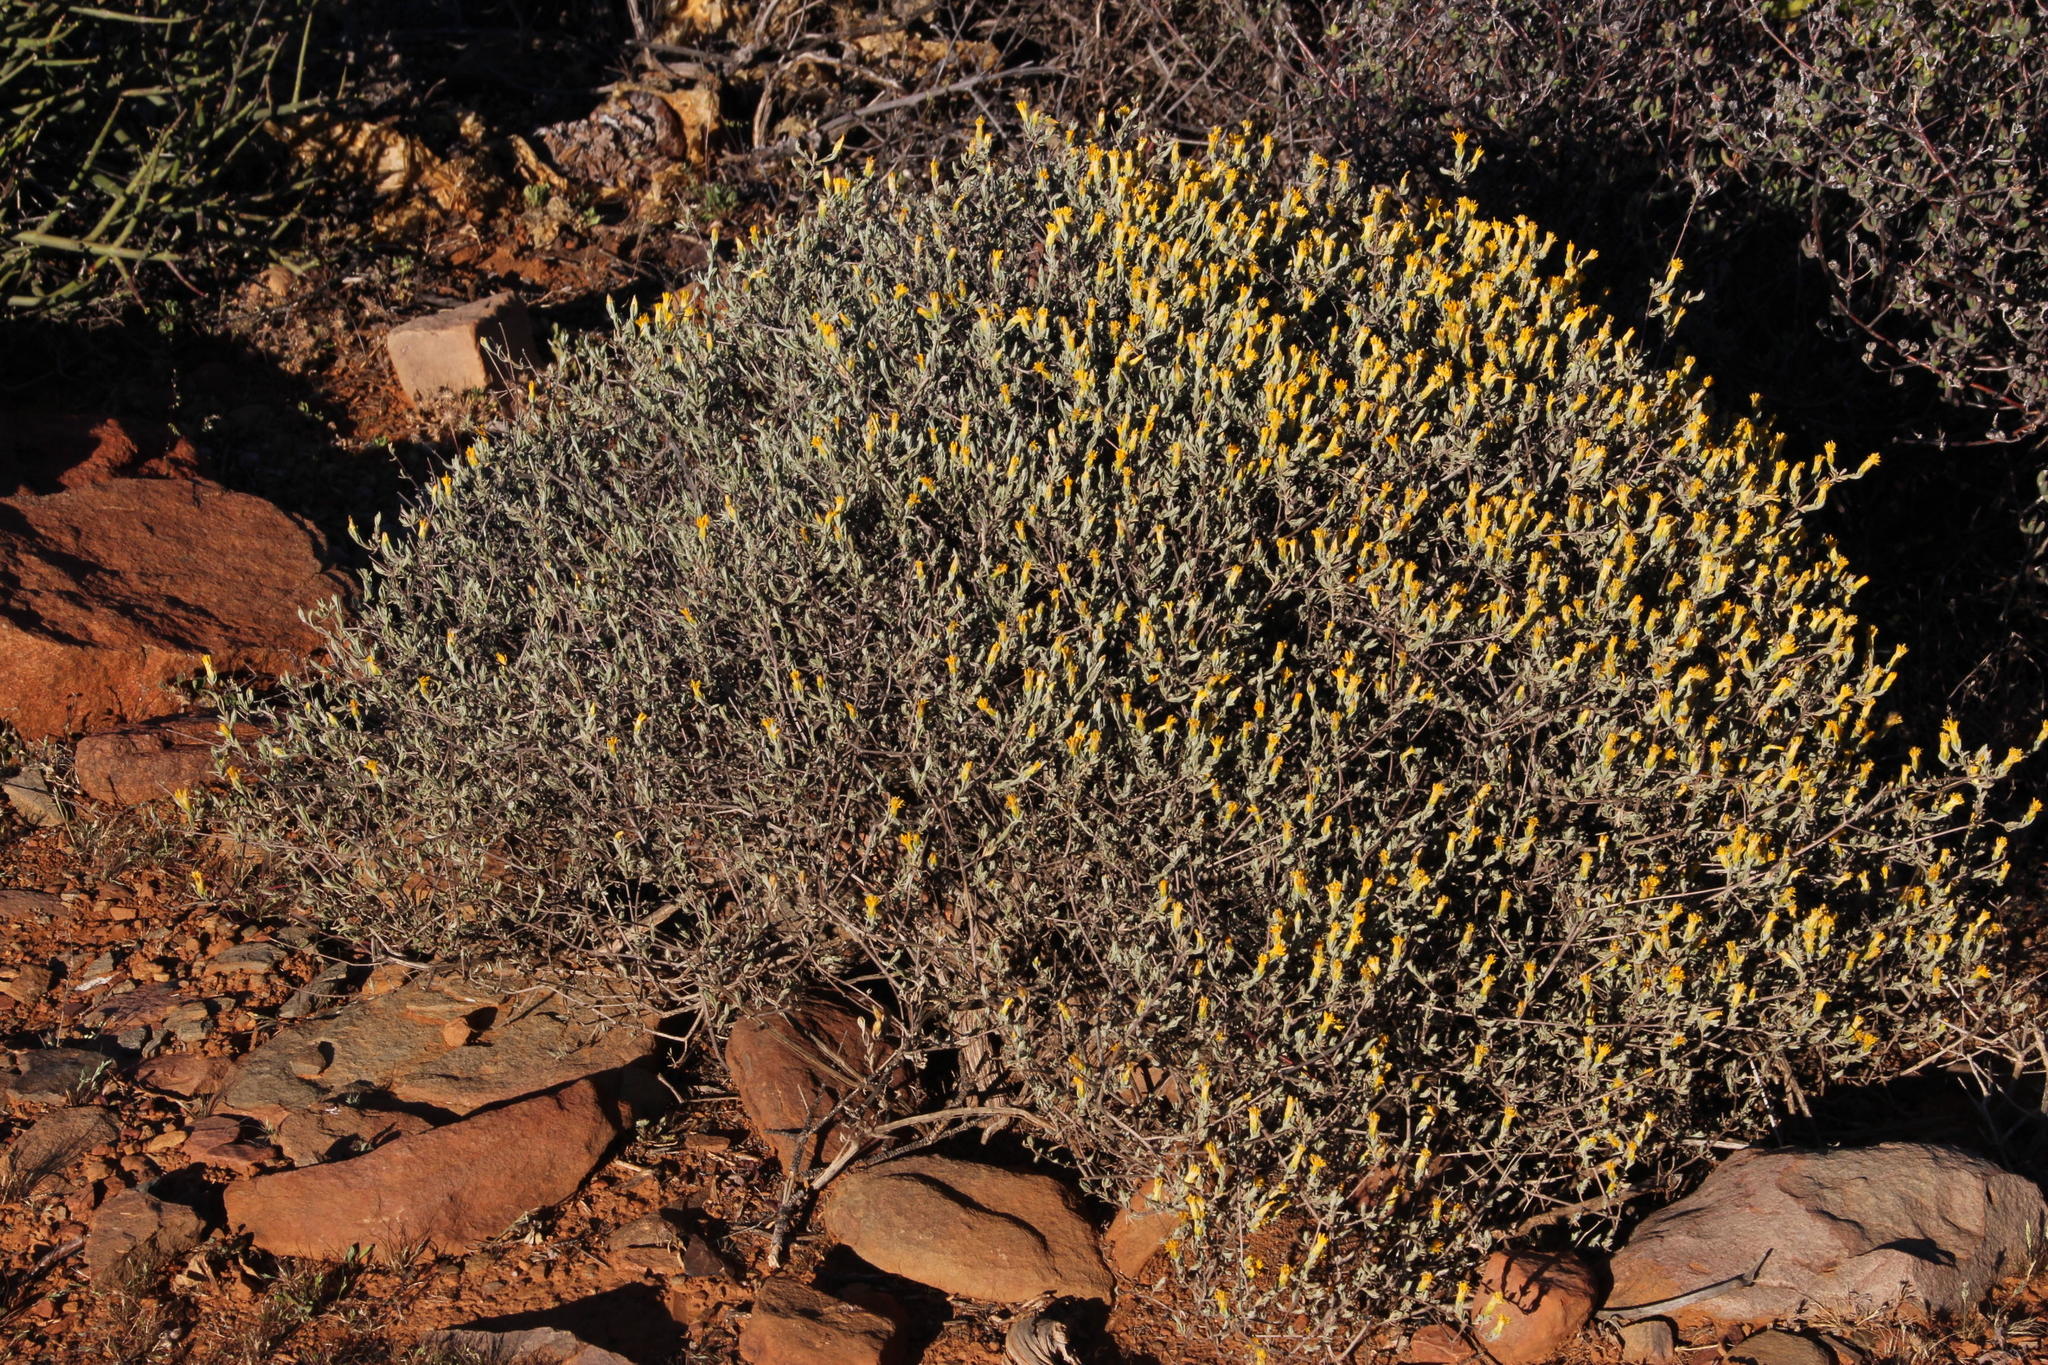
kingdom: Plantae
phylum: Tracheophyta
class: Magnoliopsida
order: Asterales
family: Asteraceae
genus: Pteronia
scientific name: Pteronia glauca
